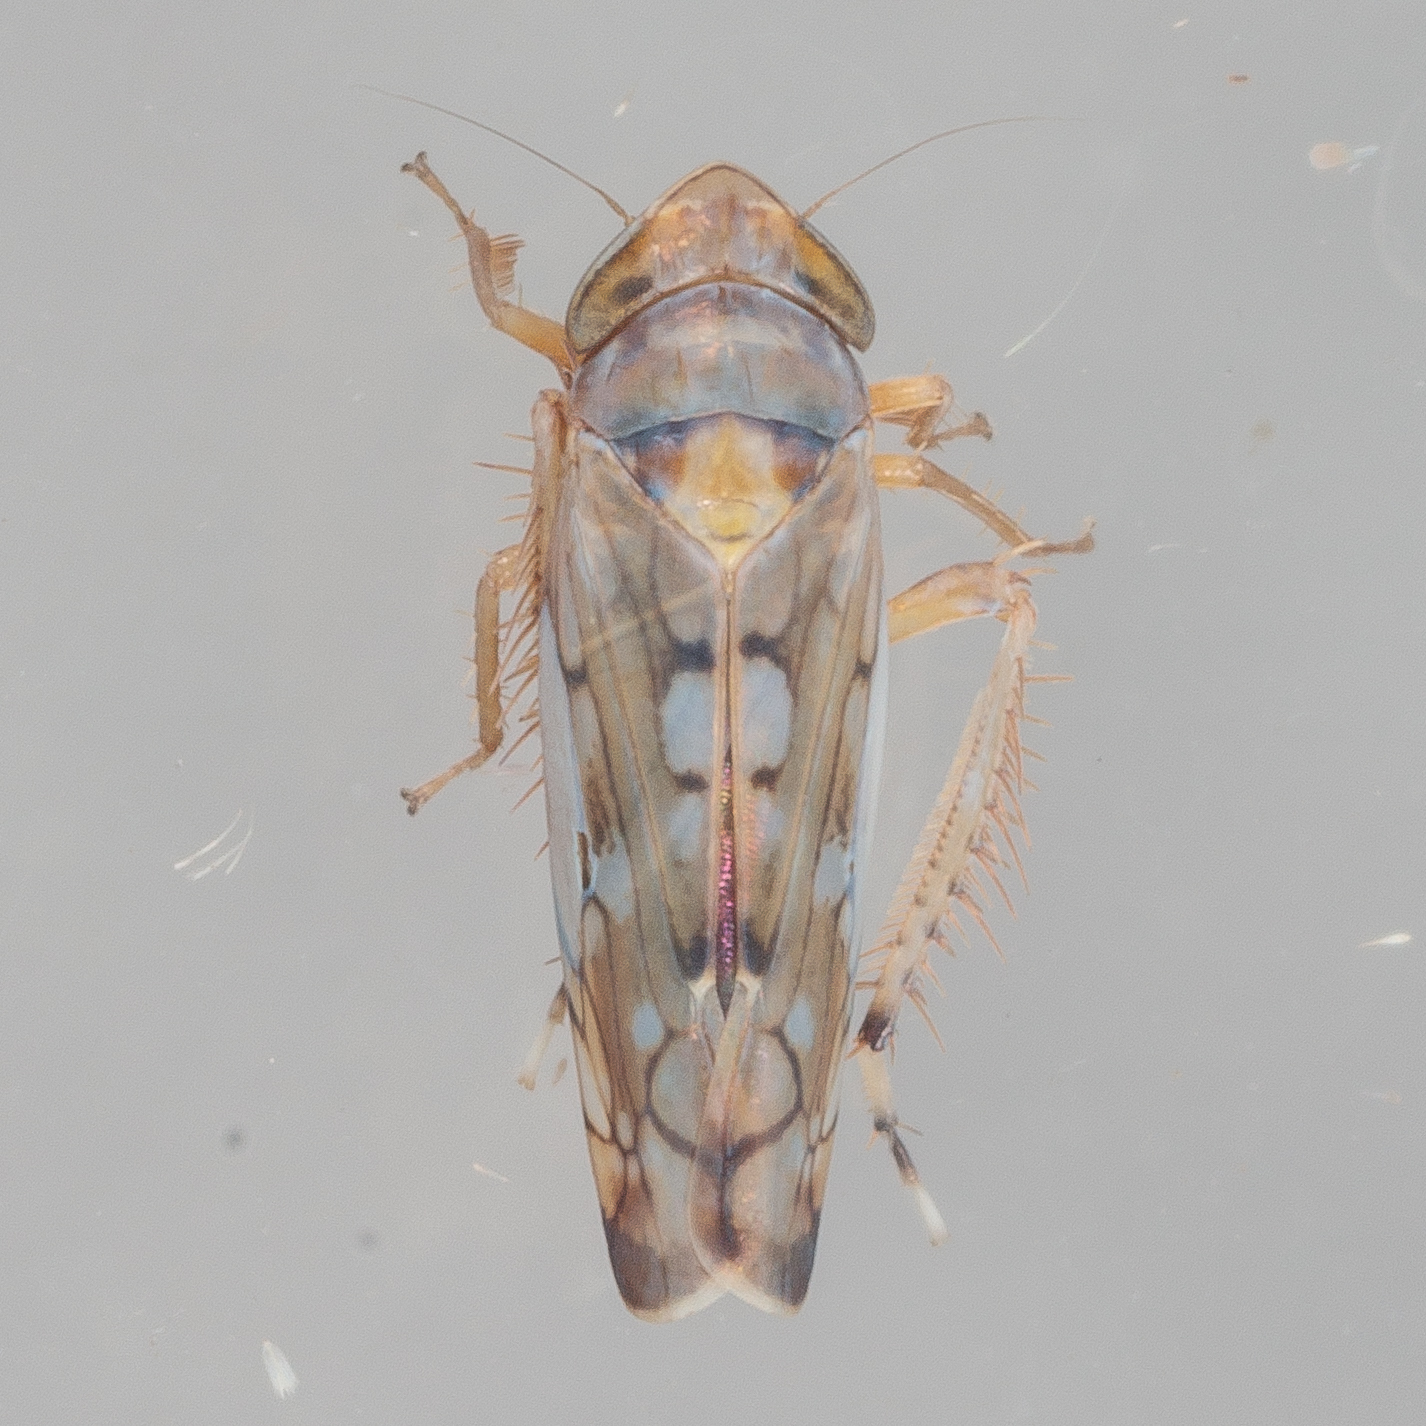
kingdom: Animalia
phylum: Arthropoda
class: Insecta
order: Hemiptera
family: Cicadellidae
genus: Scaphoideus
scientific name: Scaphoideus opalinus
